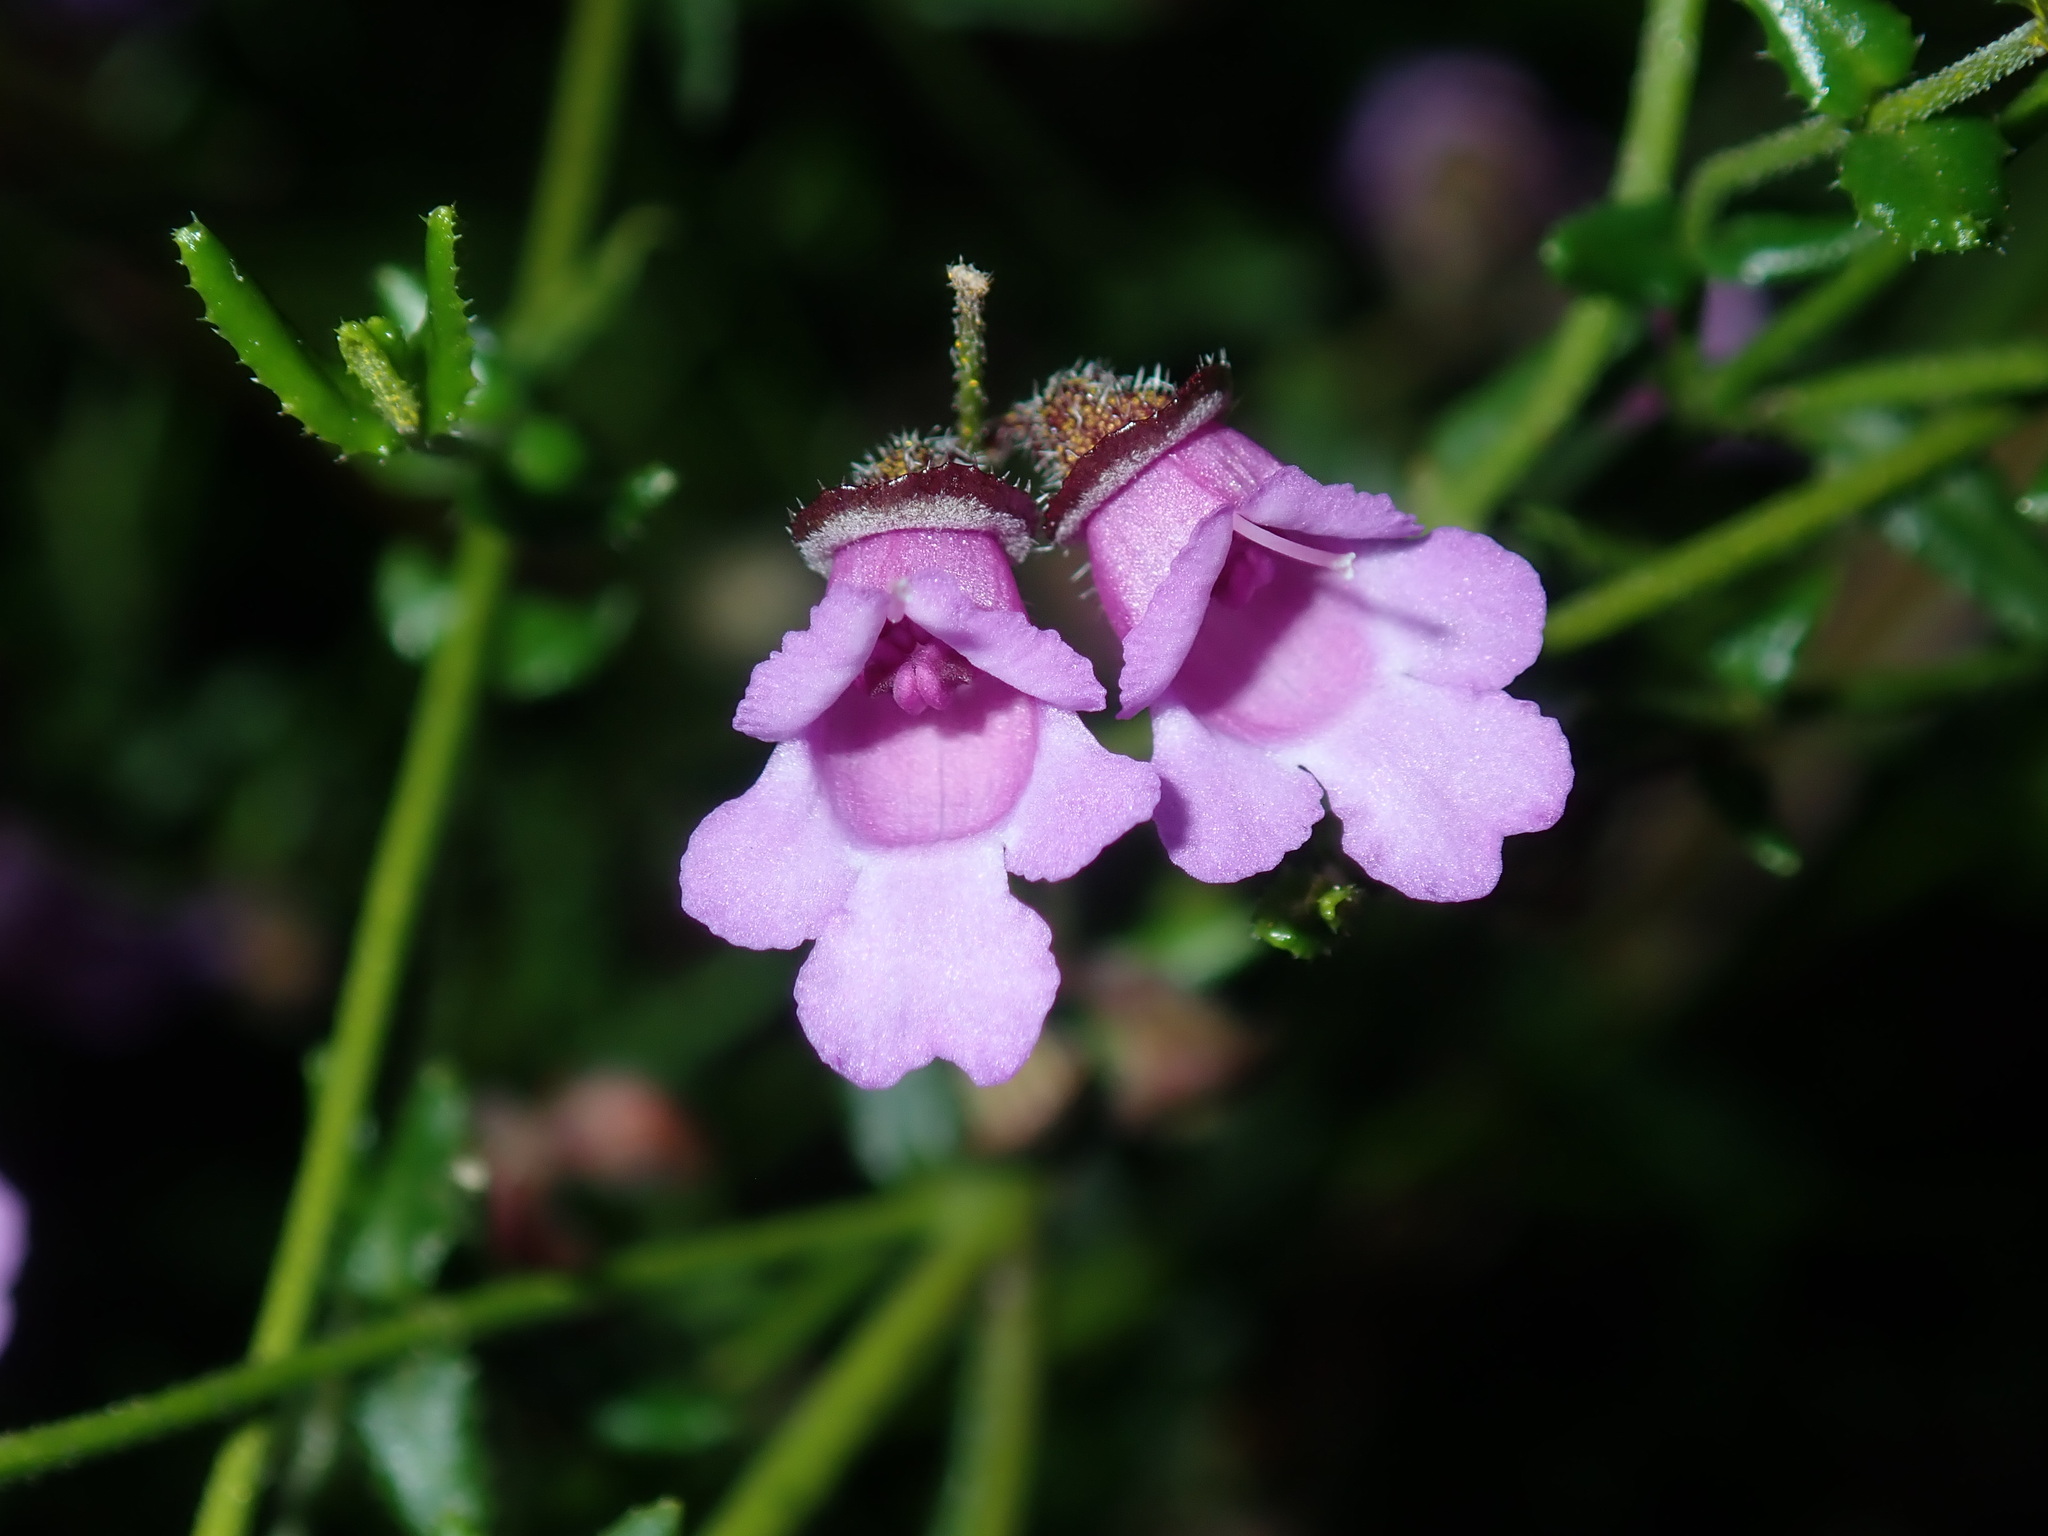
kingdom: Plantae
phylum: Tracheophyta
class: Magnoliopsida
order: Lamiales
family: Lamiaceae
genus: Prostanthera
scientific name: Prostanthera denticulata
